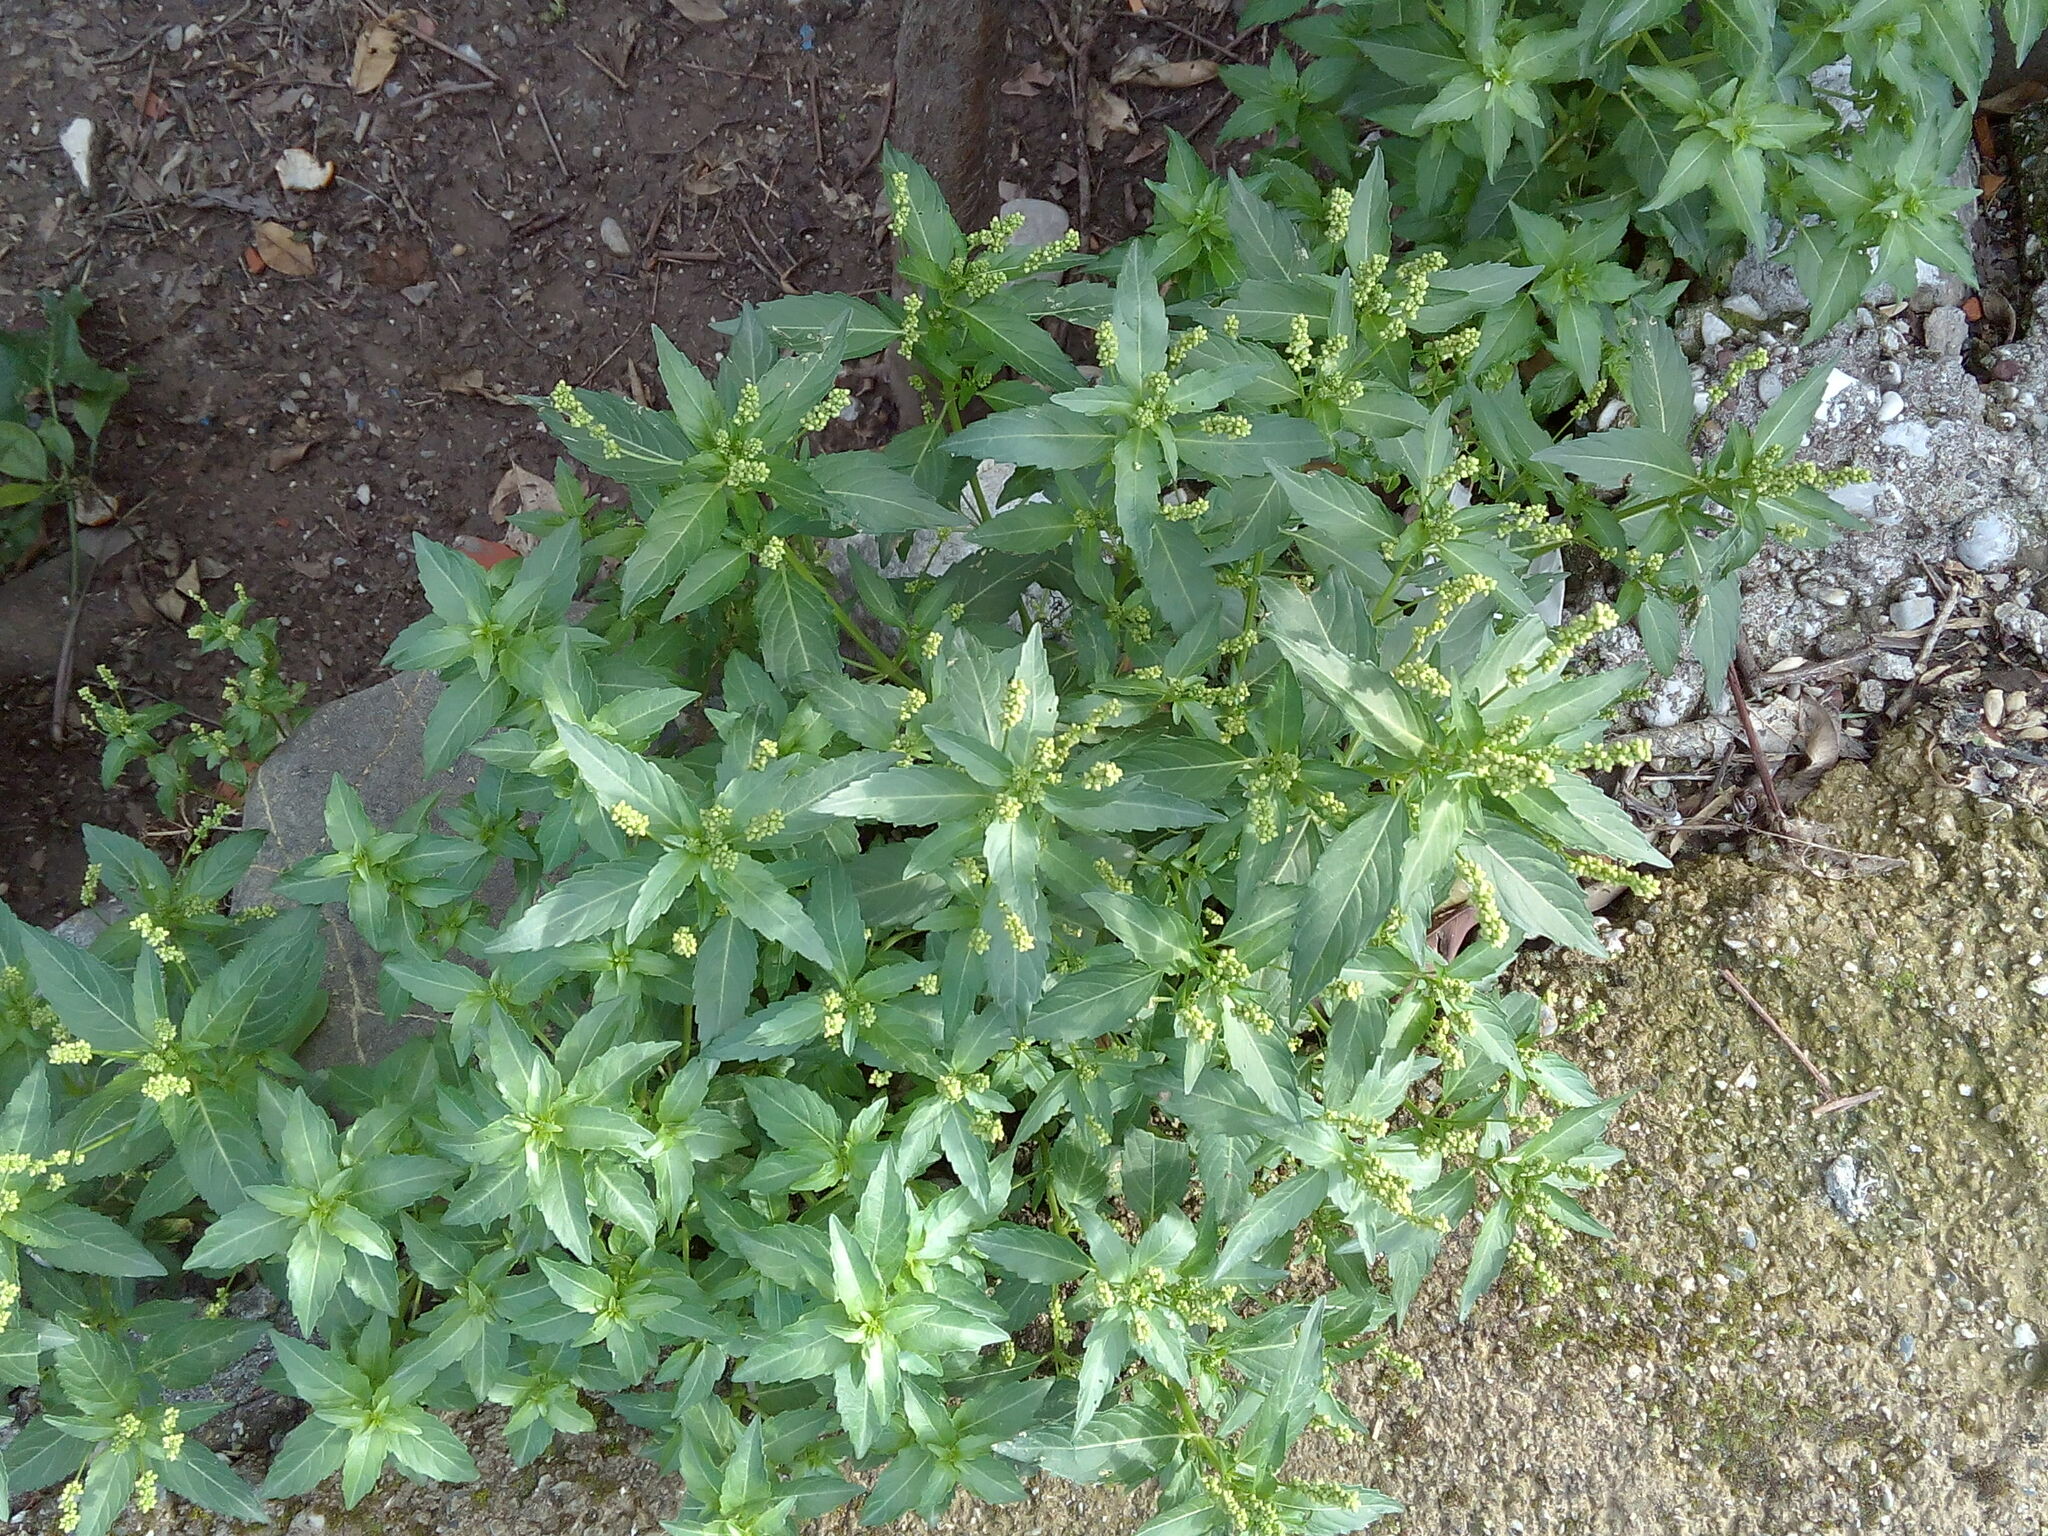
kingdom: Plantae
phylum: Tracheophyta
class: Magnoliopsida
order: Malpighiales
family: Euphorbiaceae
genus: Mercurialis
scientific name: Mercurialis annua
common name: Annual mercury
